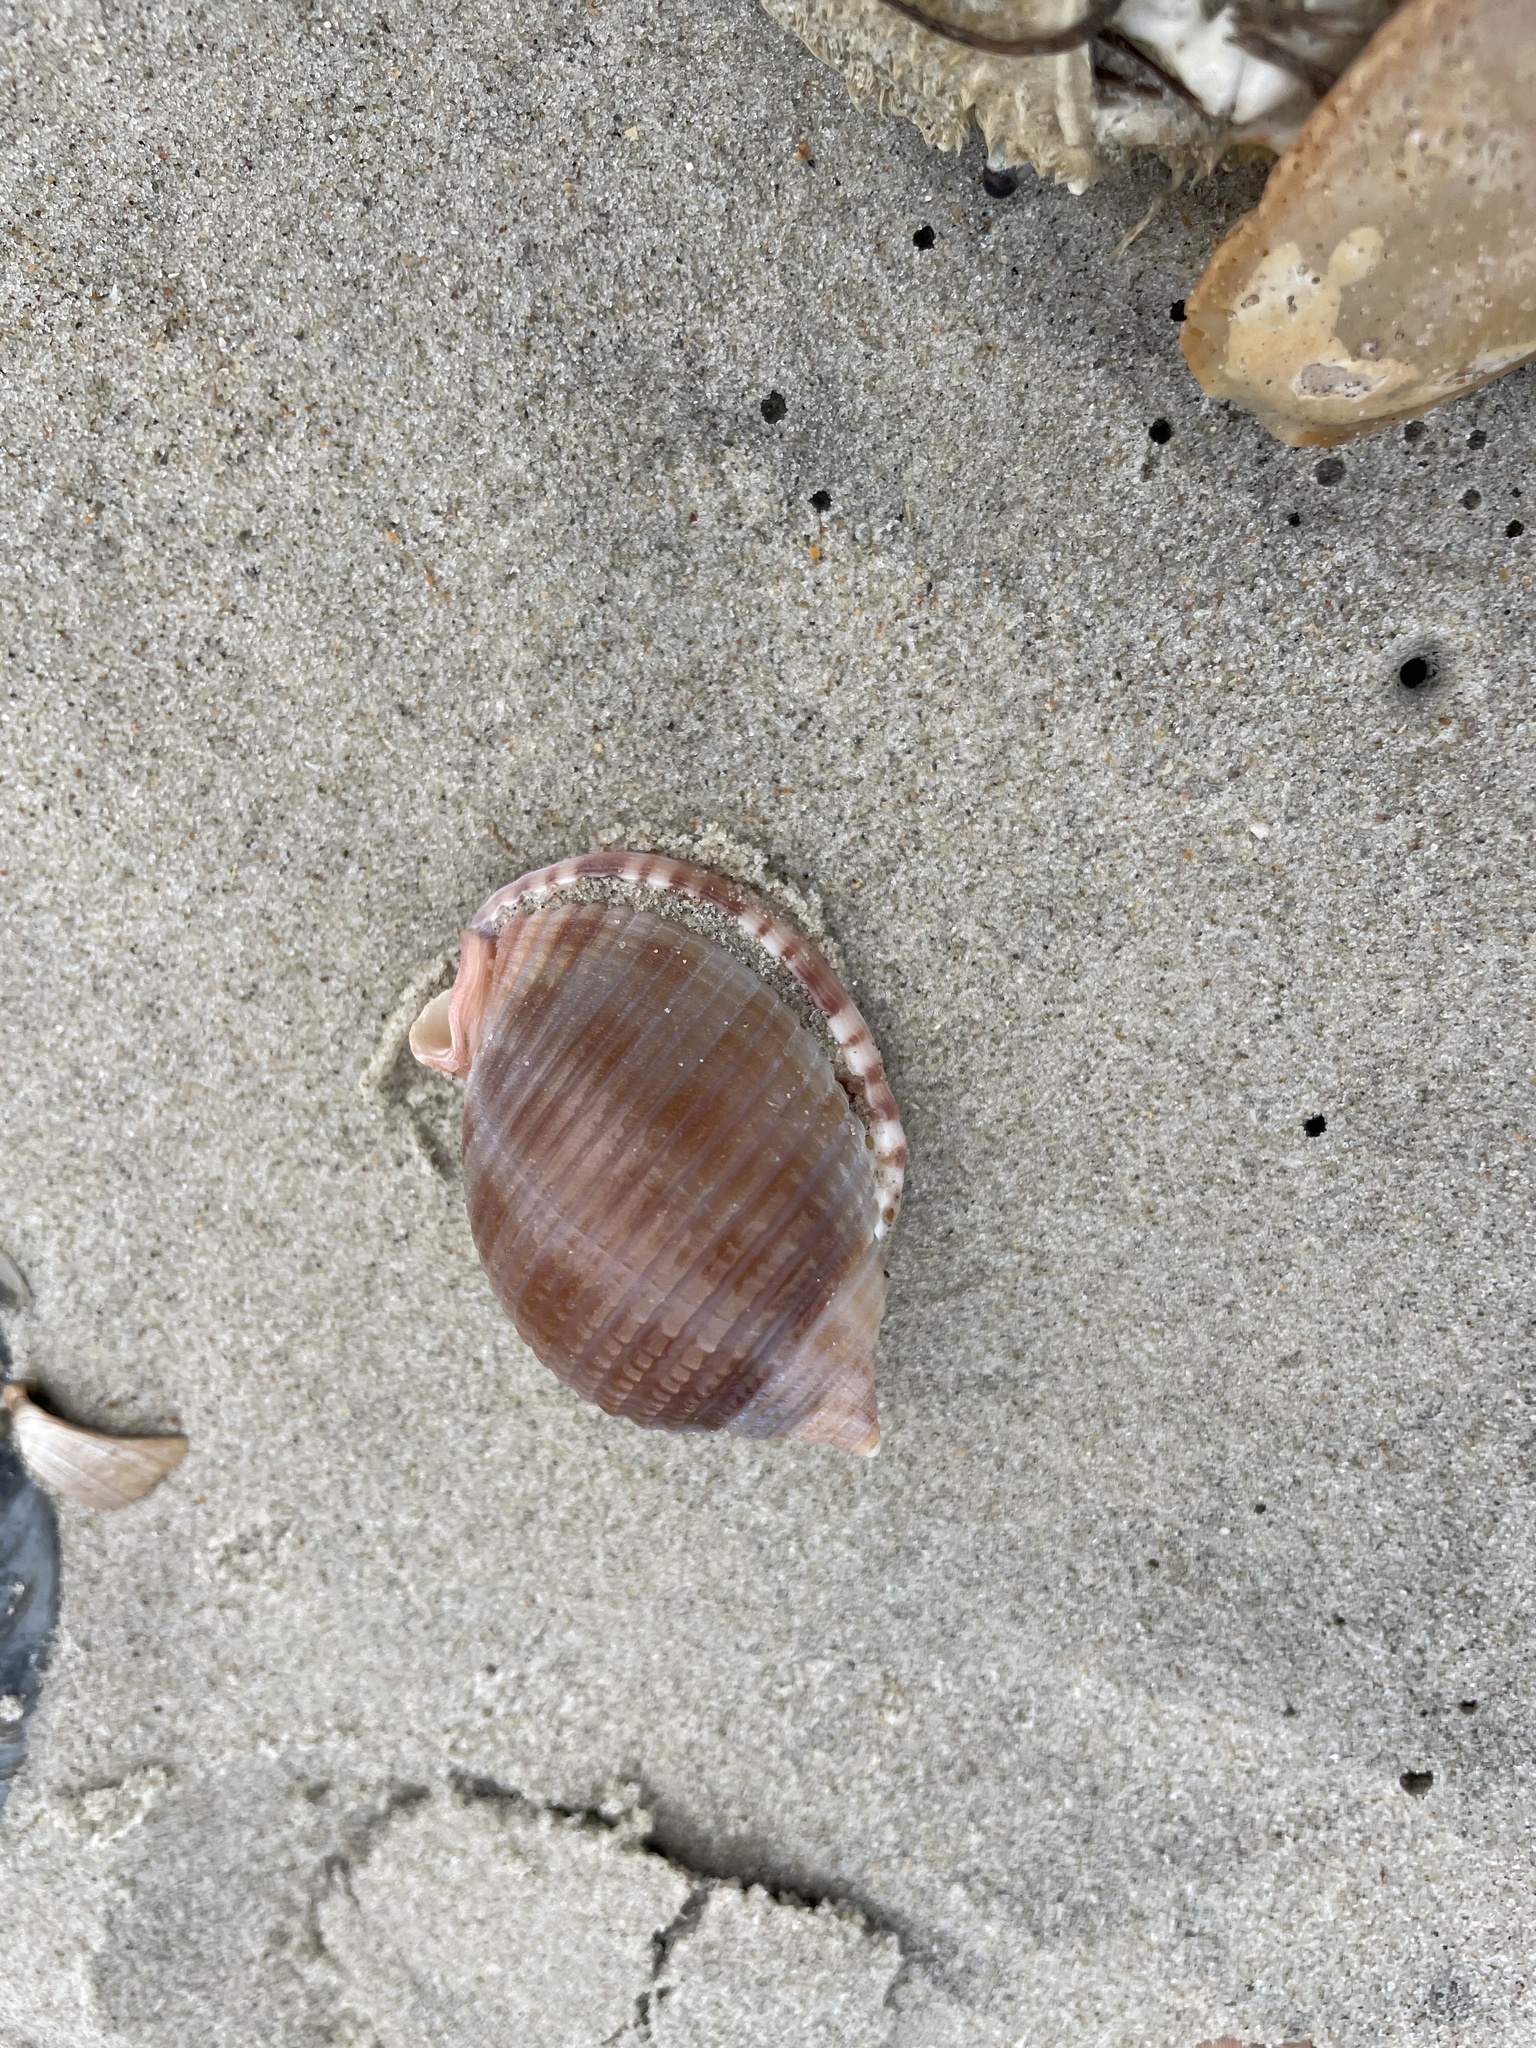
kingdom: Animalia
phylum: Mollusca
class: Gastropoda
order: Littorinimorpha
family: Cassidae
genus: Semicassis
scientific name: Semicassis granulata
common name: Scotch bonnet
